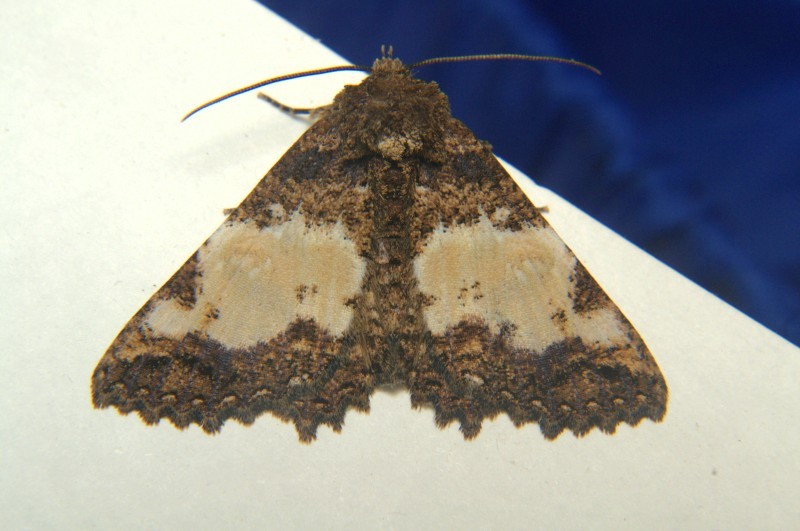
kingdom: Animalia
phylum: Arthropoda
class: Insecta
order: Lepidoptera
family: Erebidae
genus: Daddala
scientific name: Daddala lucilla
